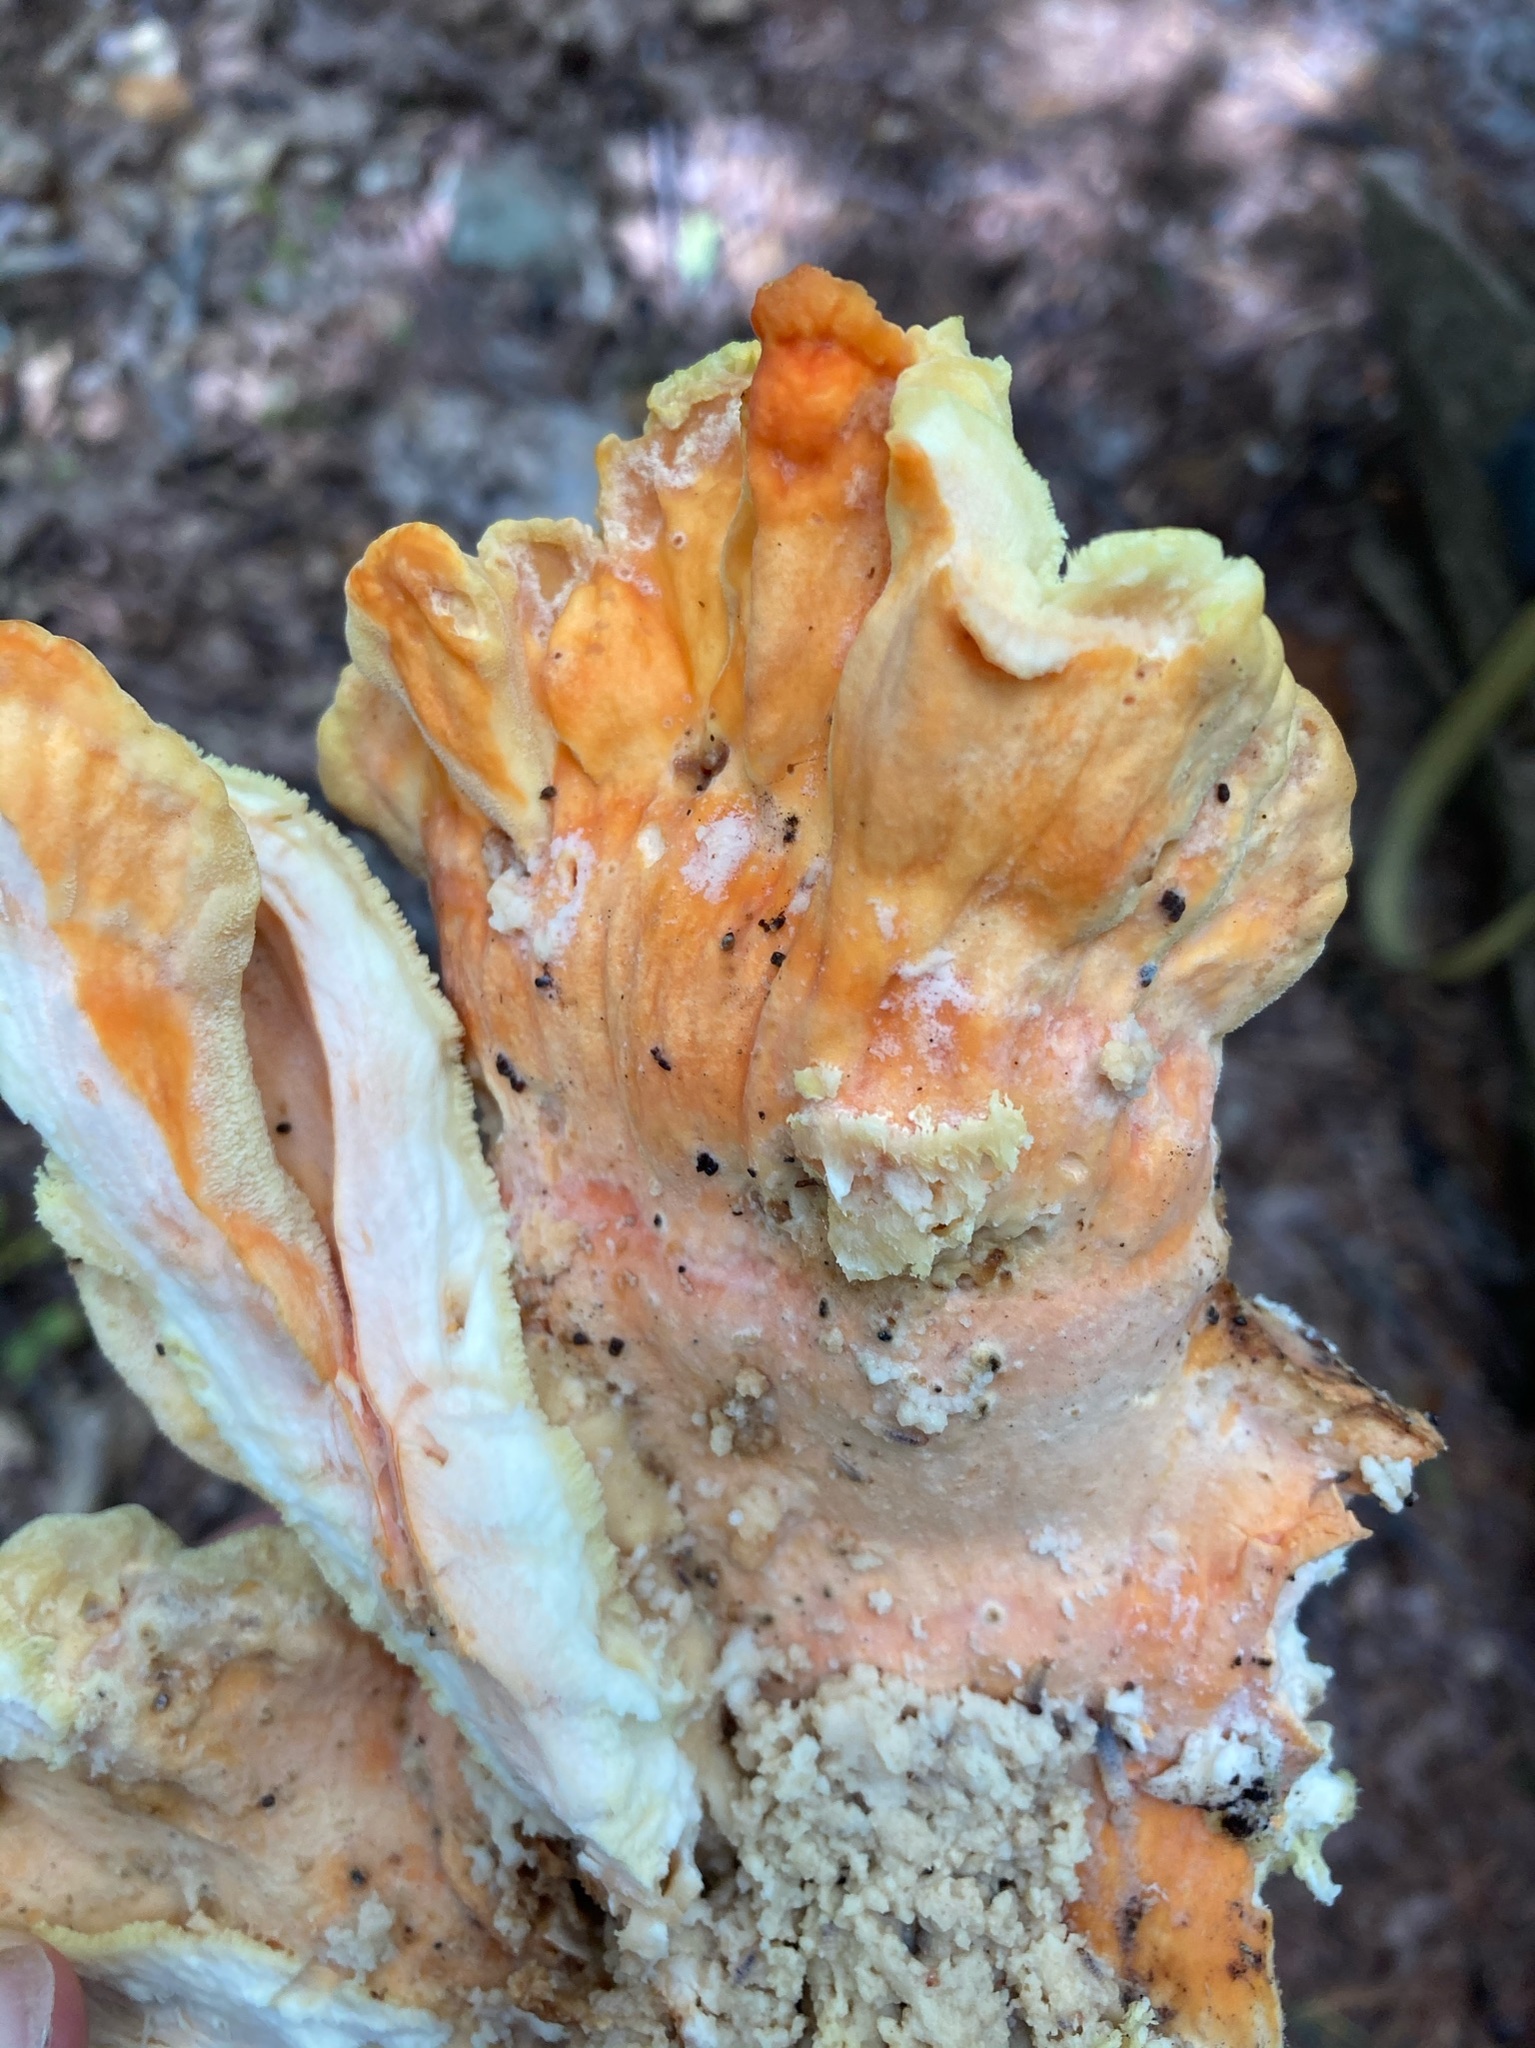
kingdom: Fungi
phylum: Basidiomycota
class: Agaricomycetes
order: Polyporales
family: Laetiporaceae
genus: Laetiporus
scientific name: Laetiporus sulphureus
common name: Chicken of the woods
